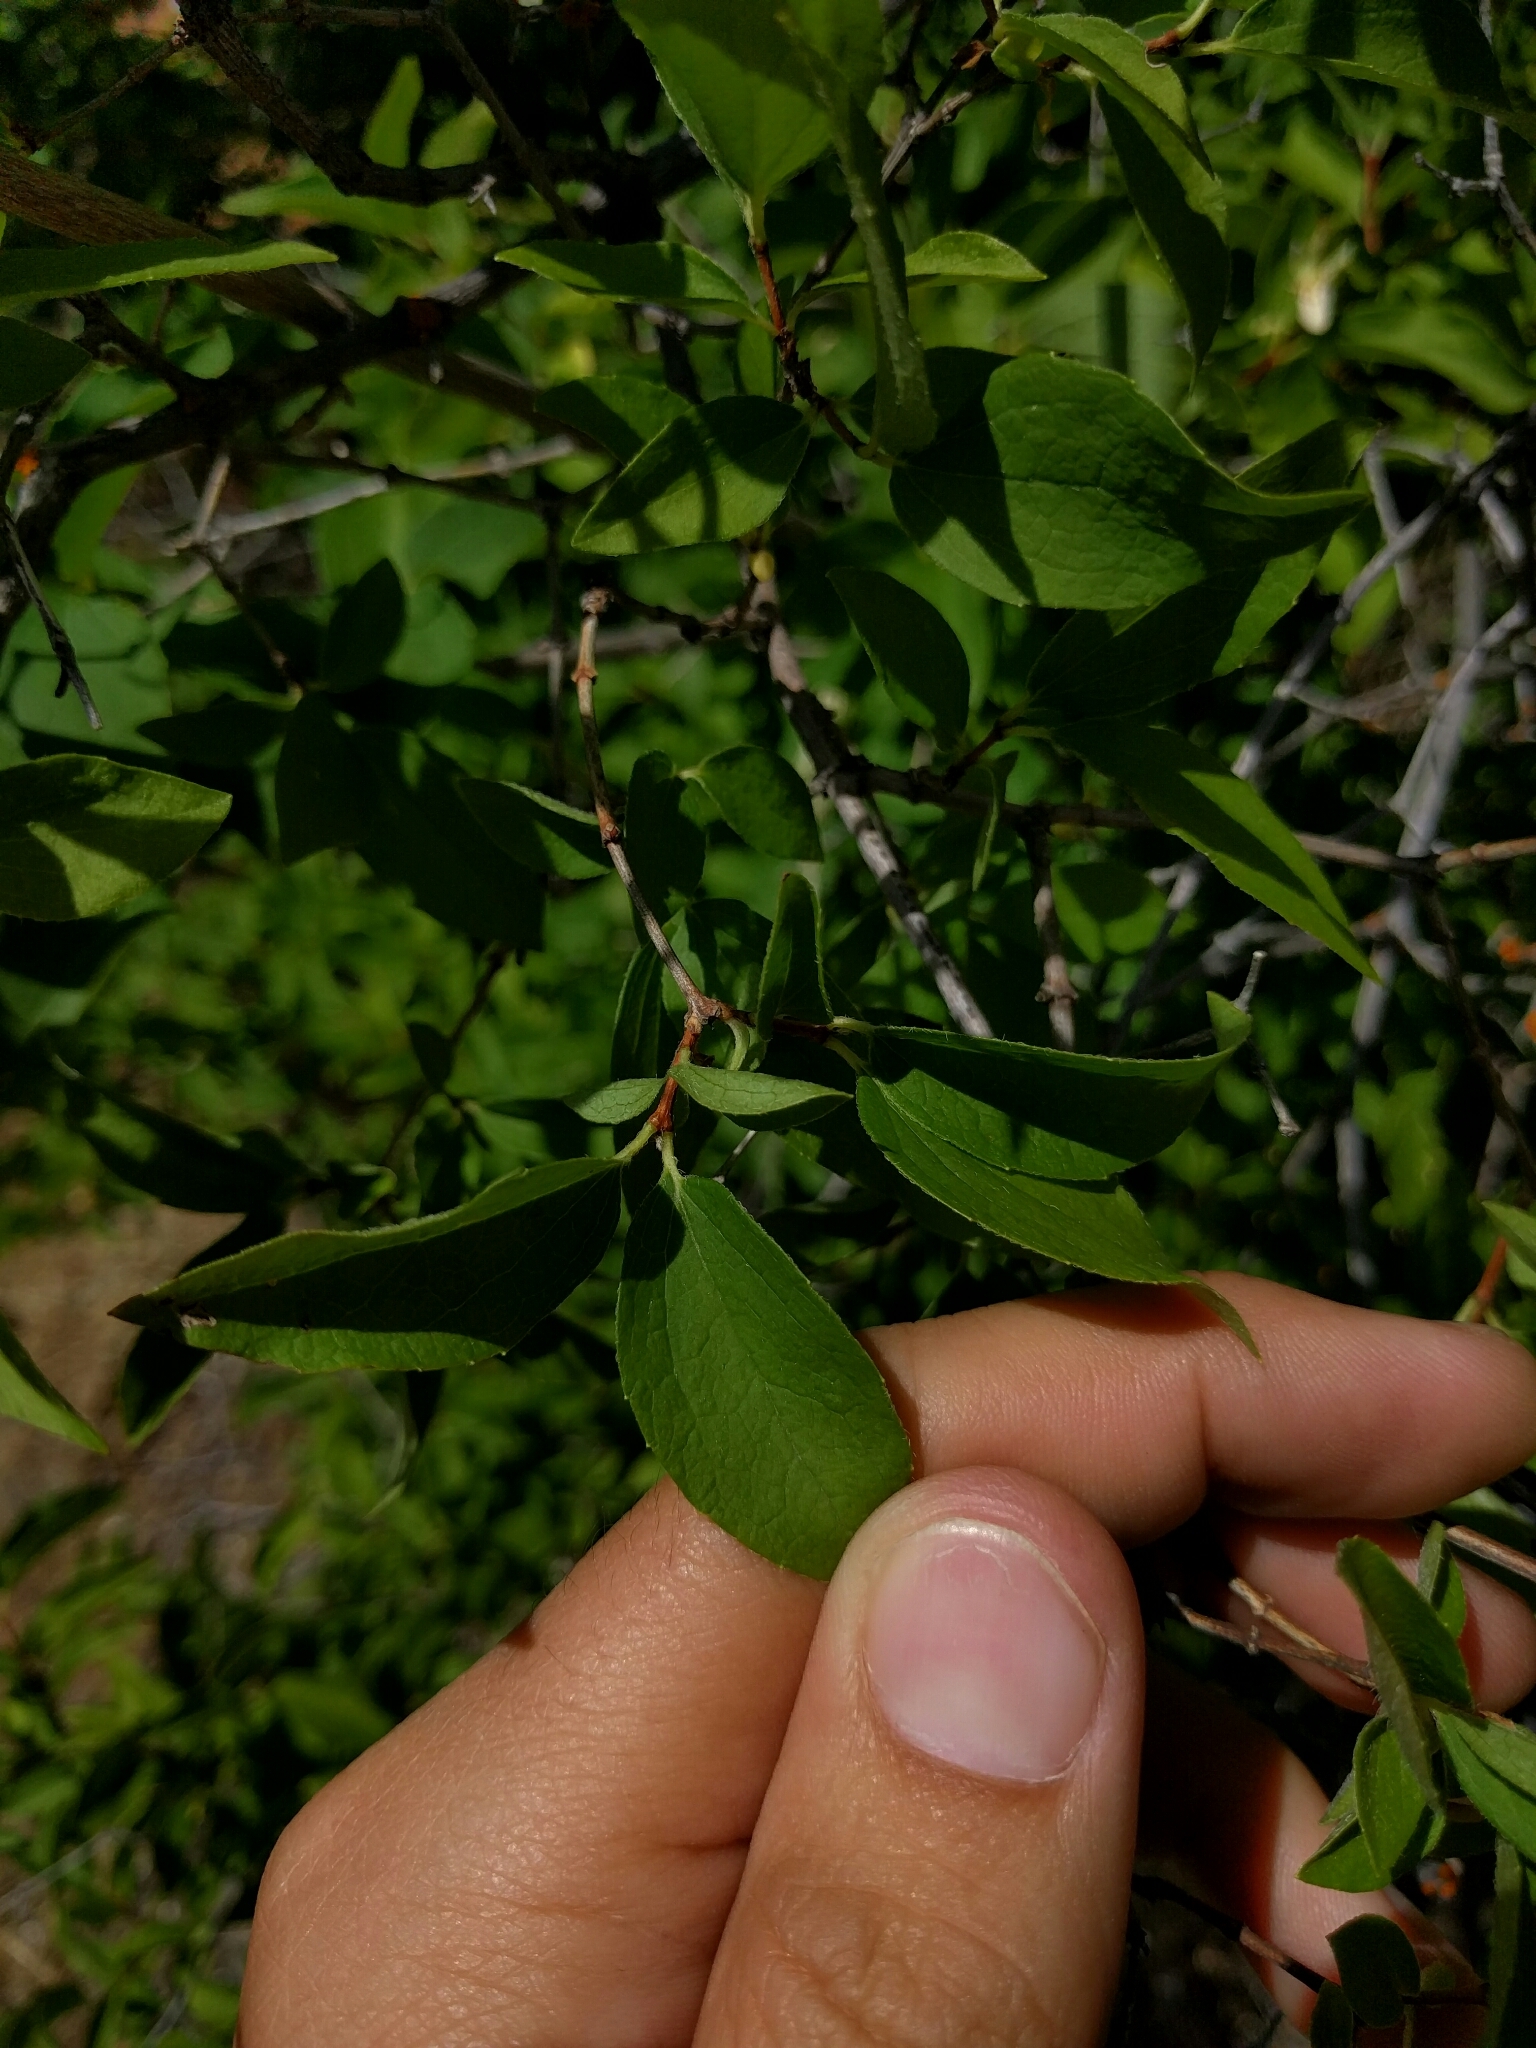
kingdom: Plantae
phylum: Tracheophyta
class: Magnoliopsida
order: Cornales
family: Hydrangeaceae
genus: Philadelphus
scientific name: Philadelphus lewisii
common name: Lewis's mock orange
